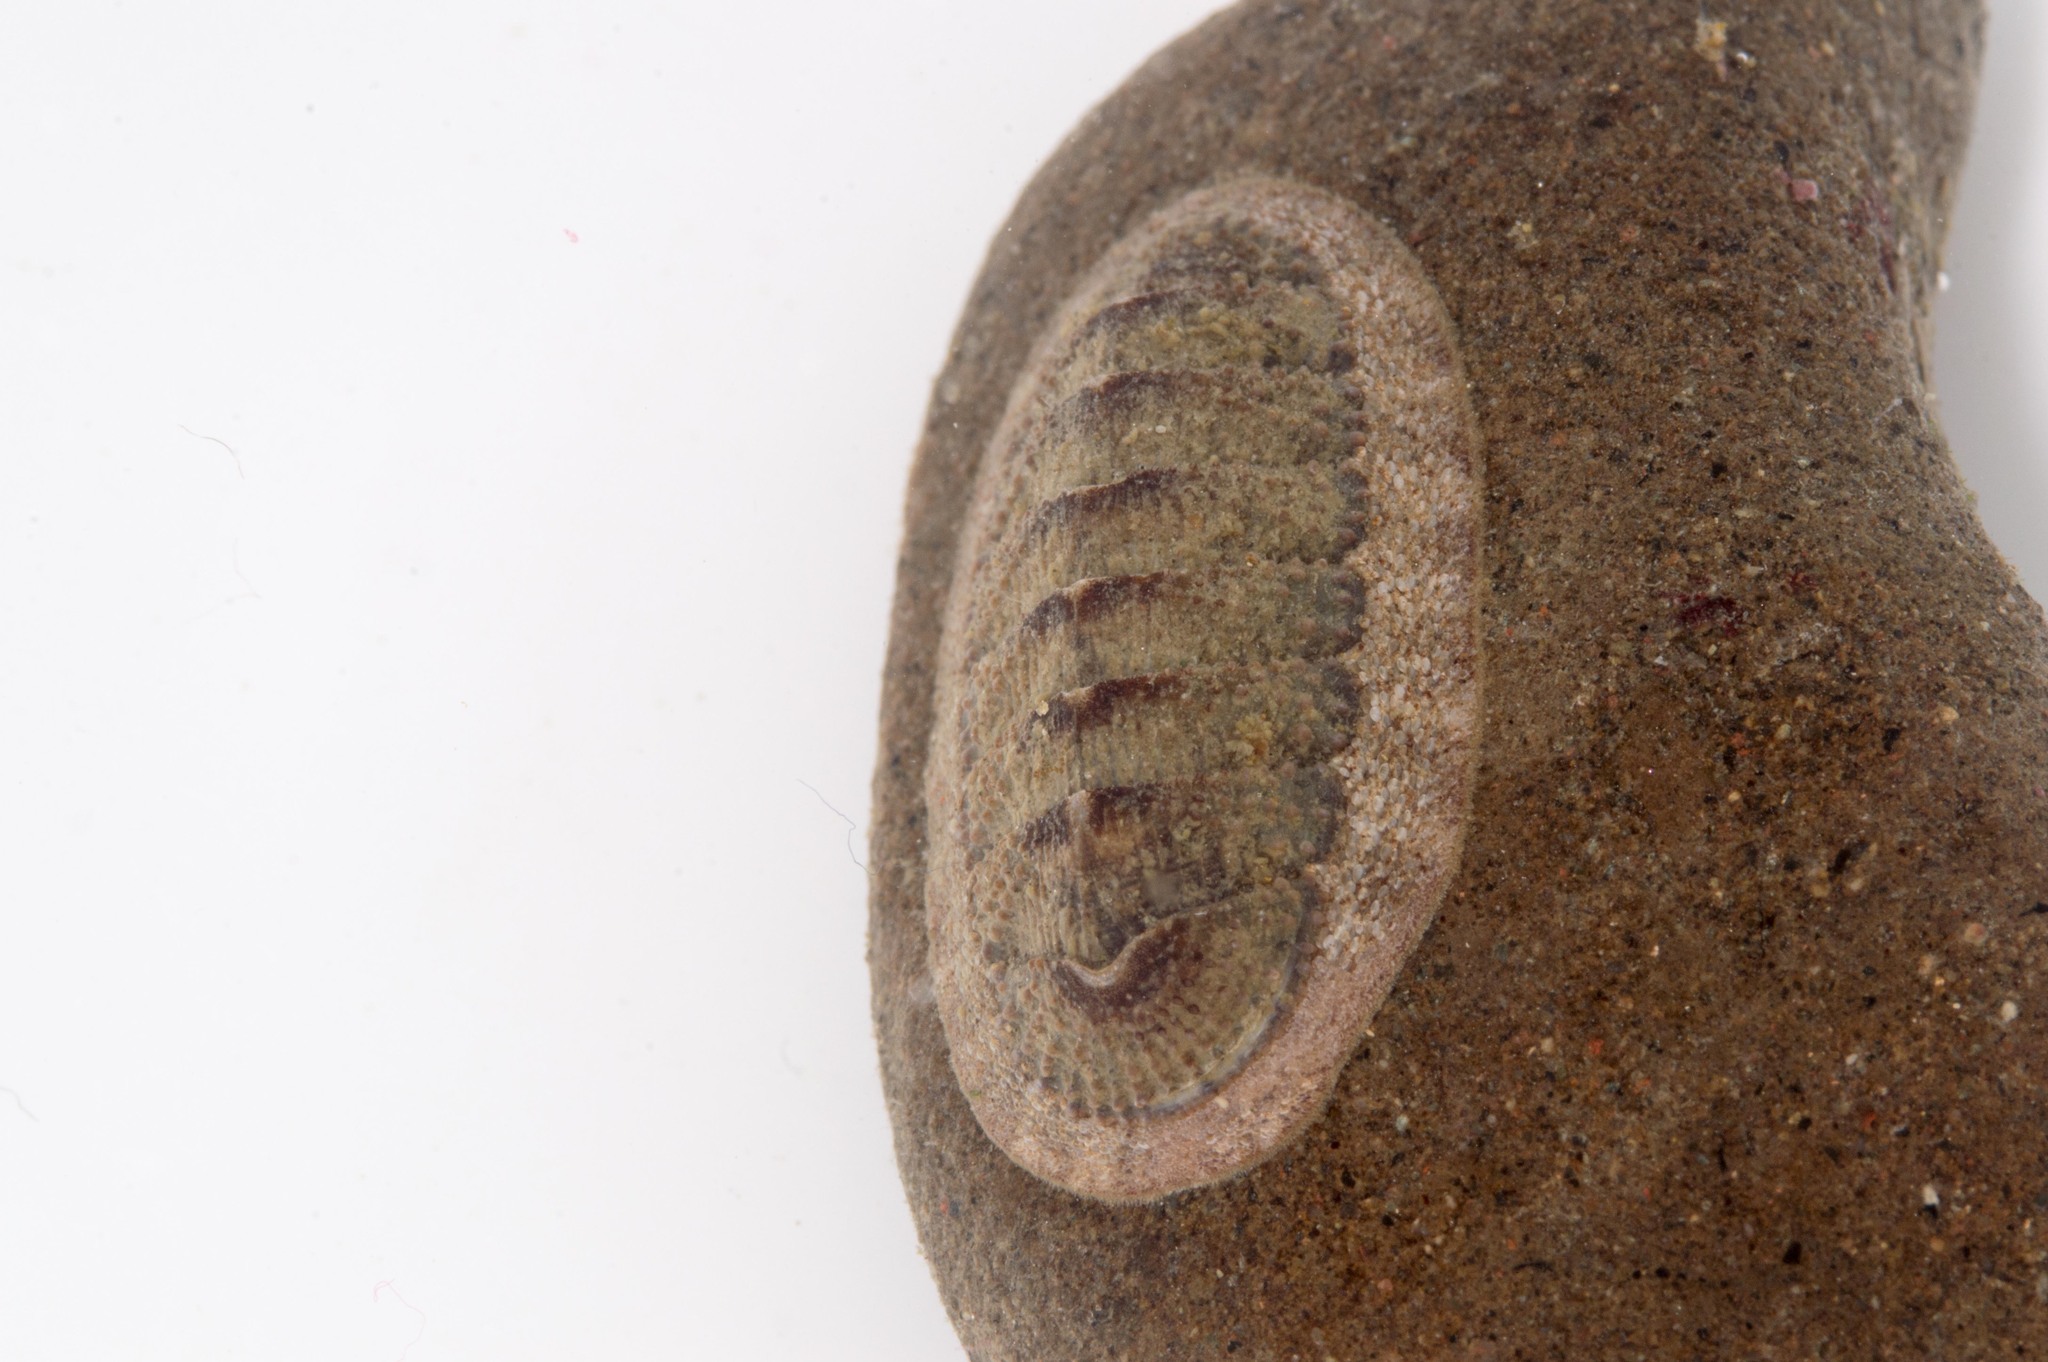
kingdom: Animalia
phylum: Mollusca
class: Polyplacophora
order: Chitonida
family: Ischnochitonidae
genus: Lepidozona
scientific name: Lepidozona cooperi
